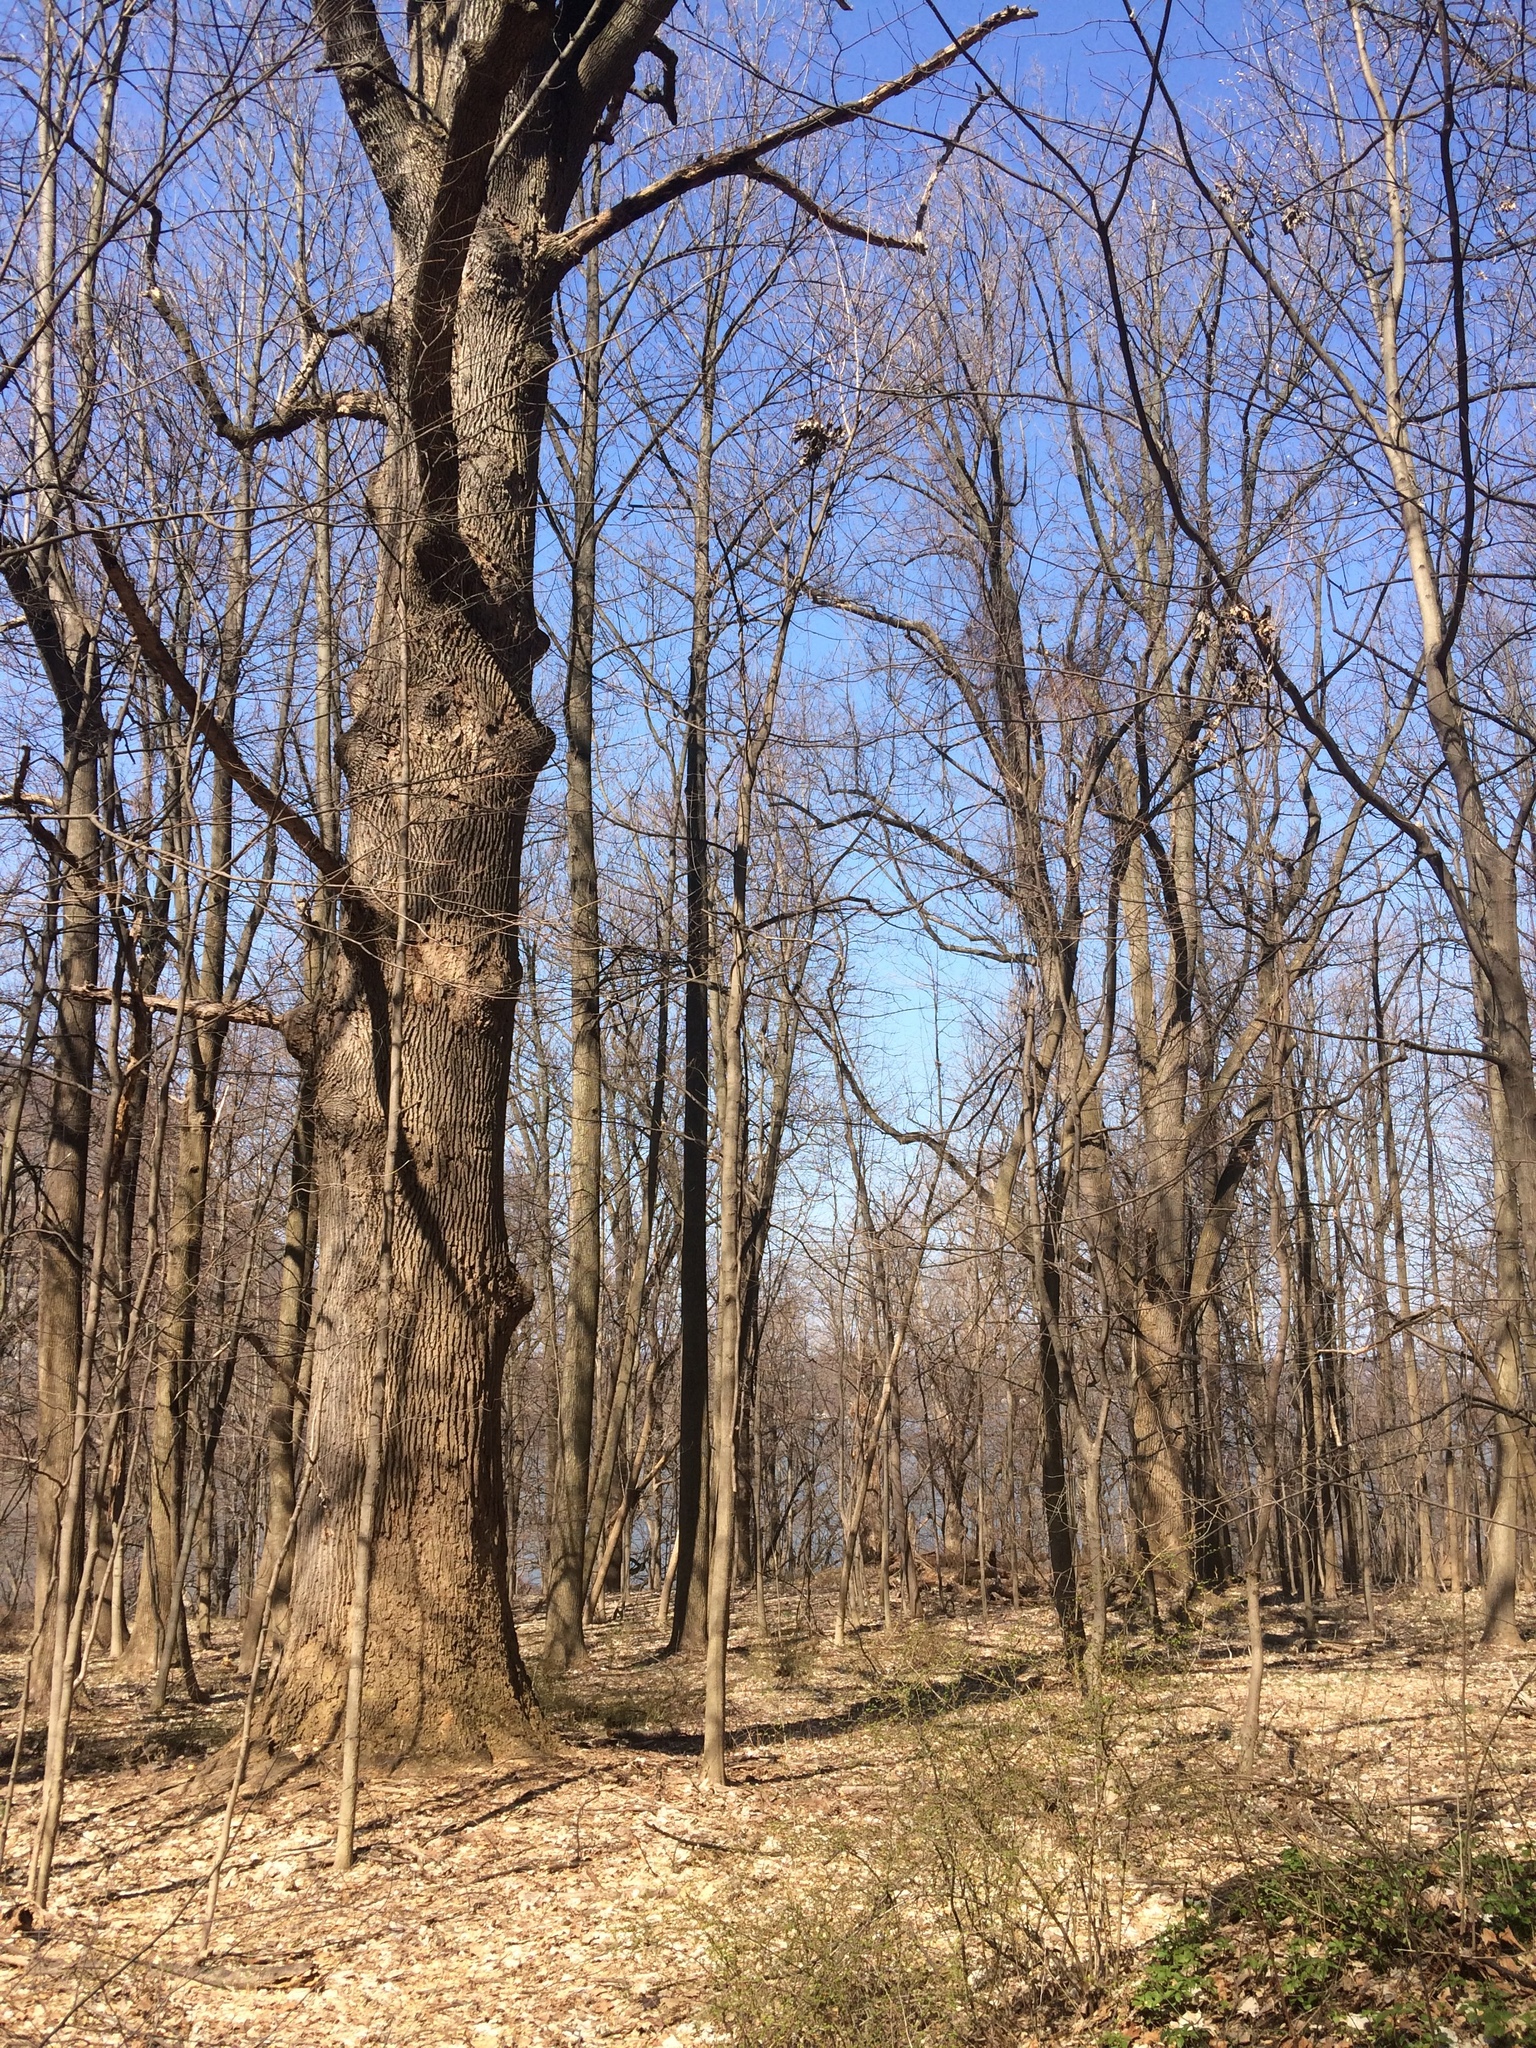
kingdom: Plantae
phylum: Tracheophyta
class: Magnoliopsida
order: Magnoliales
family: Magnoliaceae
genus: Liriodendron
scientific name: Liriodendron tulipifera
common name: Tulip tree
